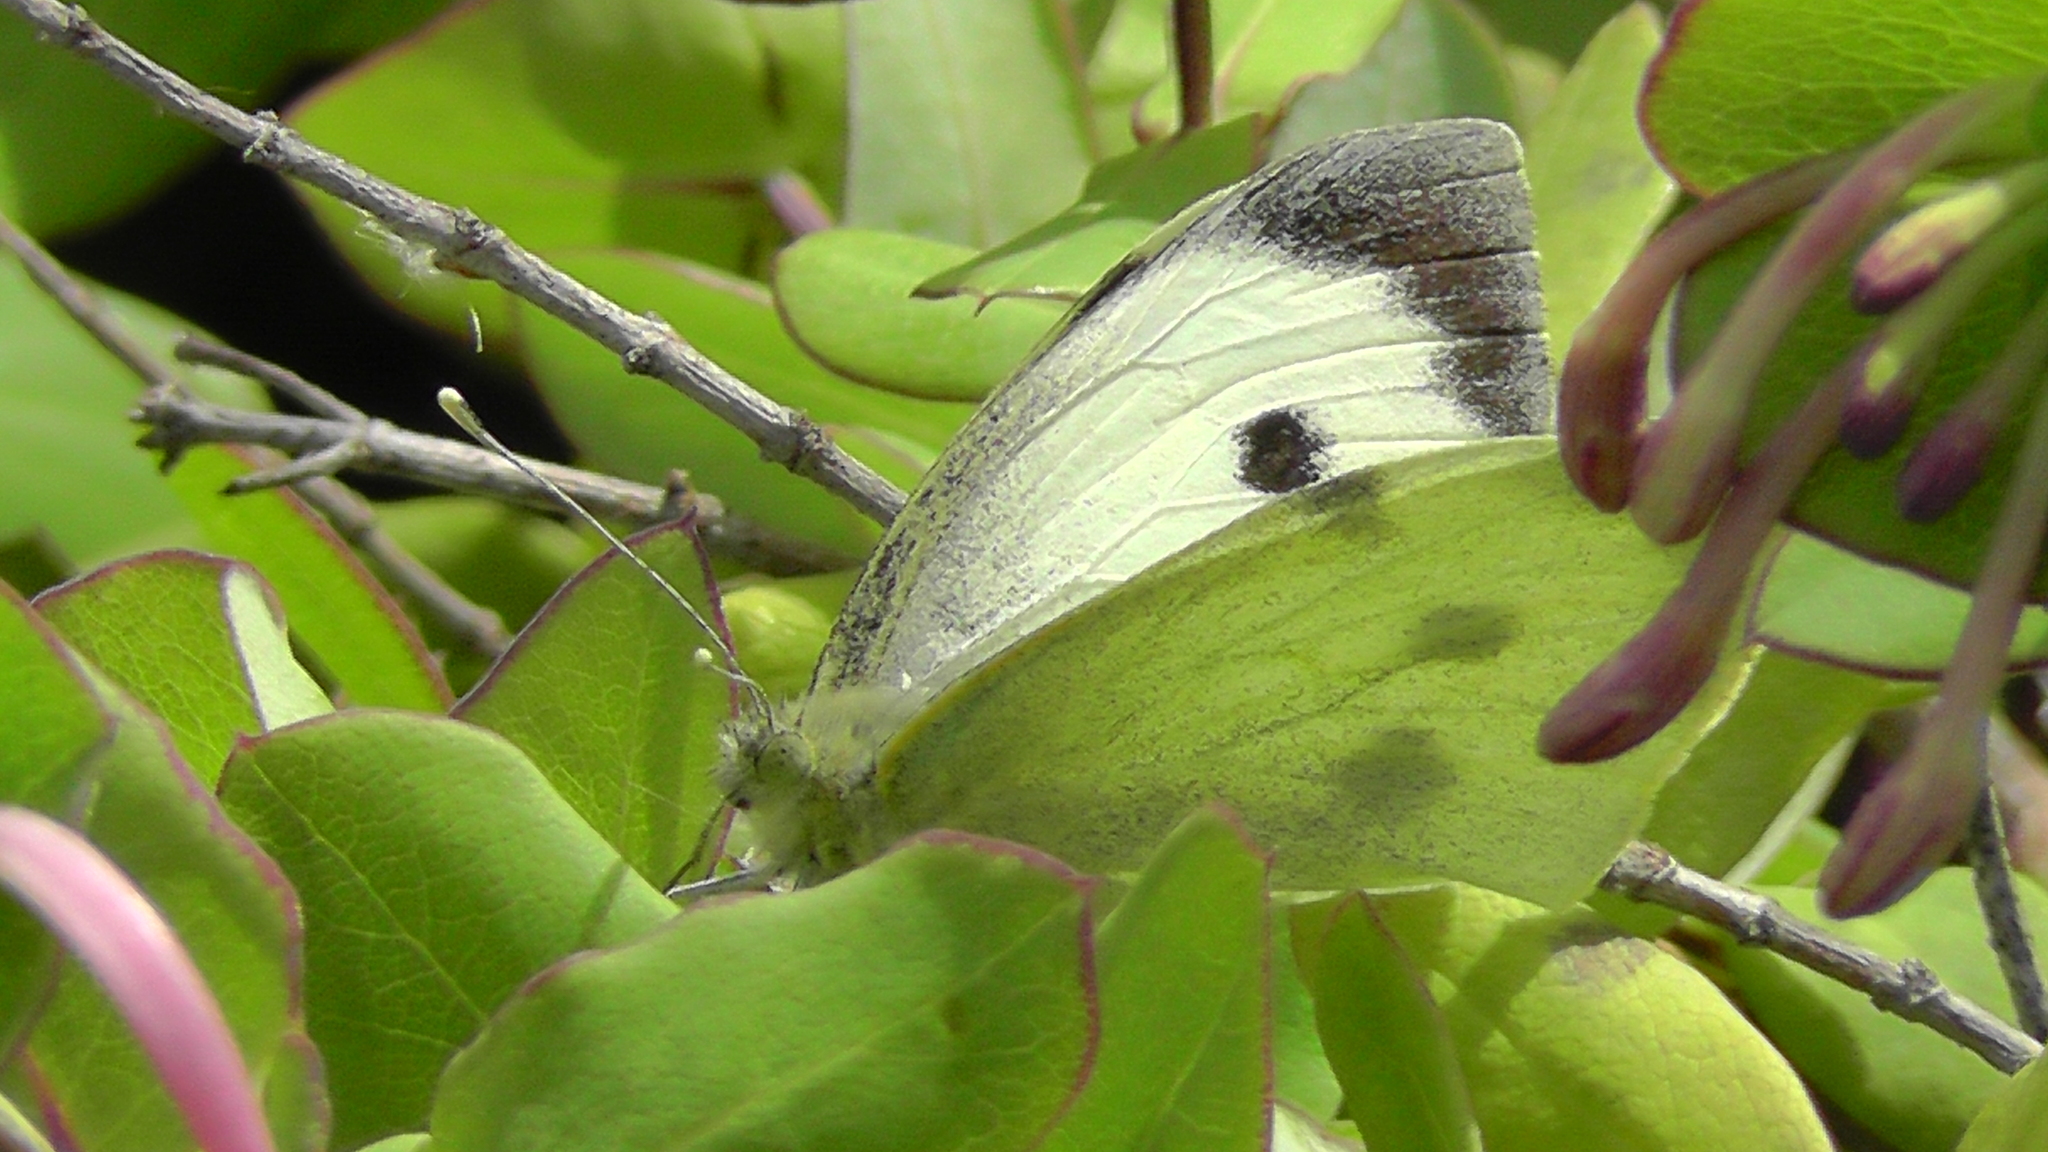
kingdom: Animalia
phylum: Arthropoda
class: Insecta
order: Lepidoptera
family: Pieridae
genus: Pieris
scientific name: Pieris brassicae
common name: Large white
